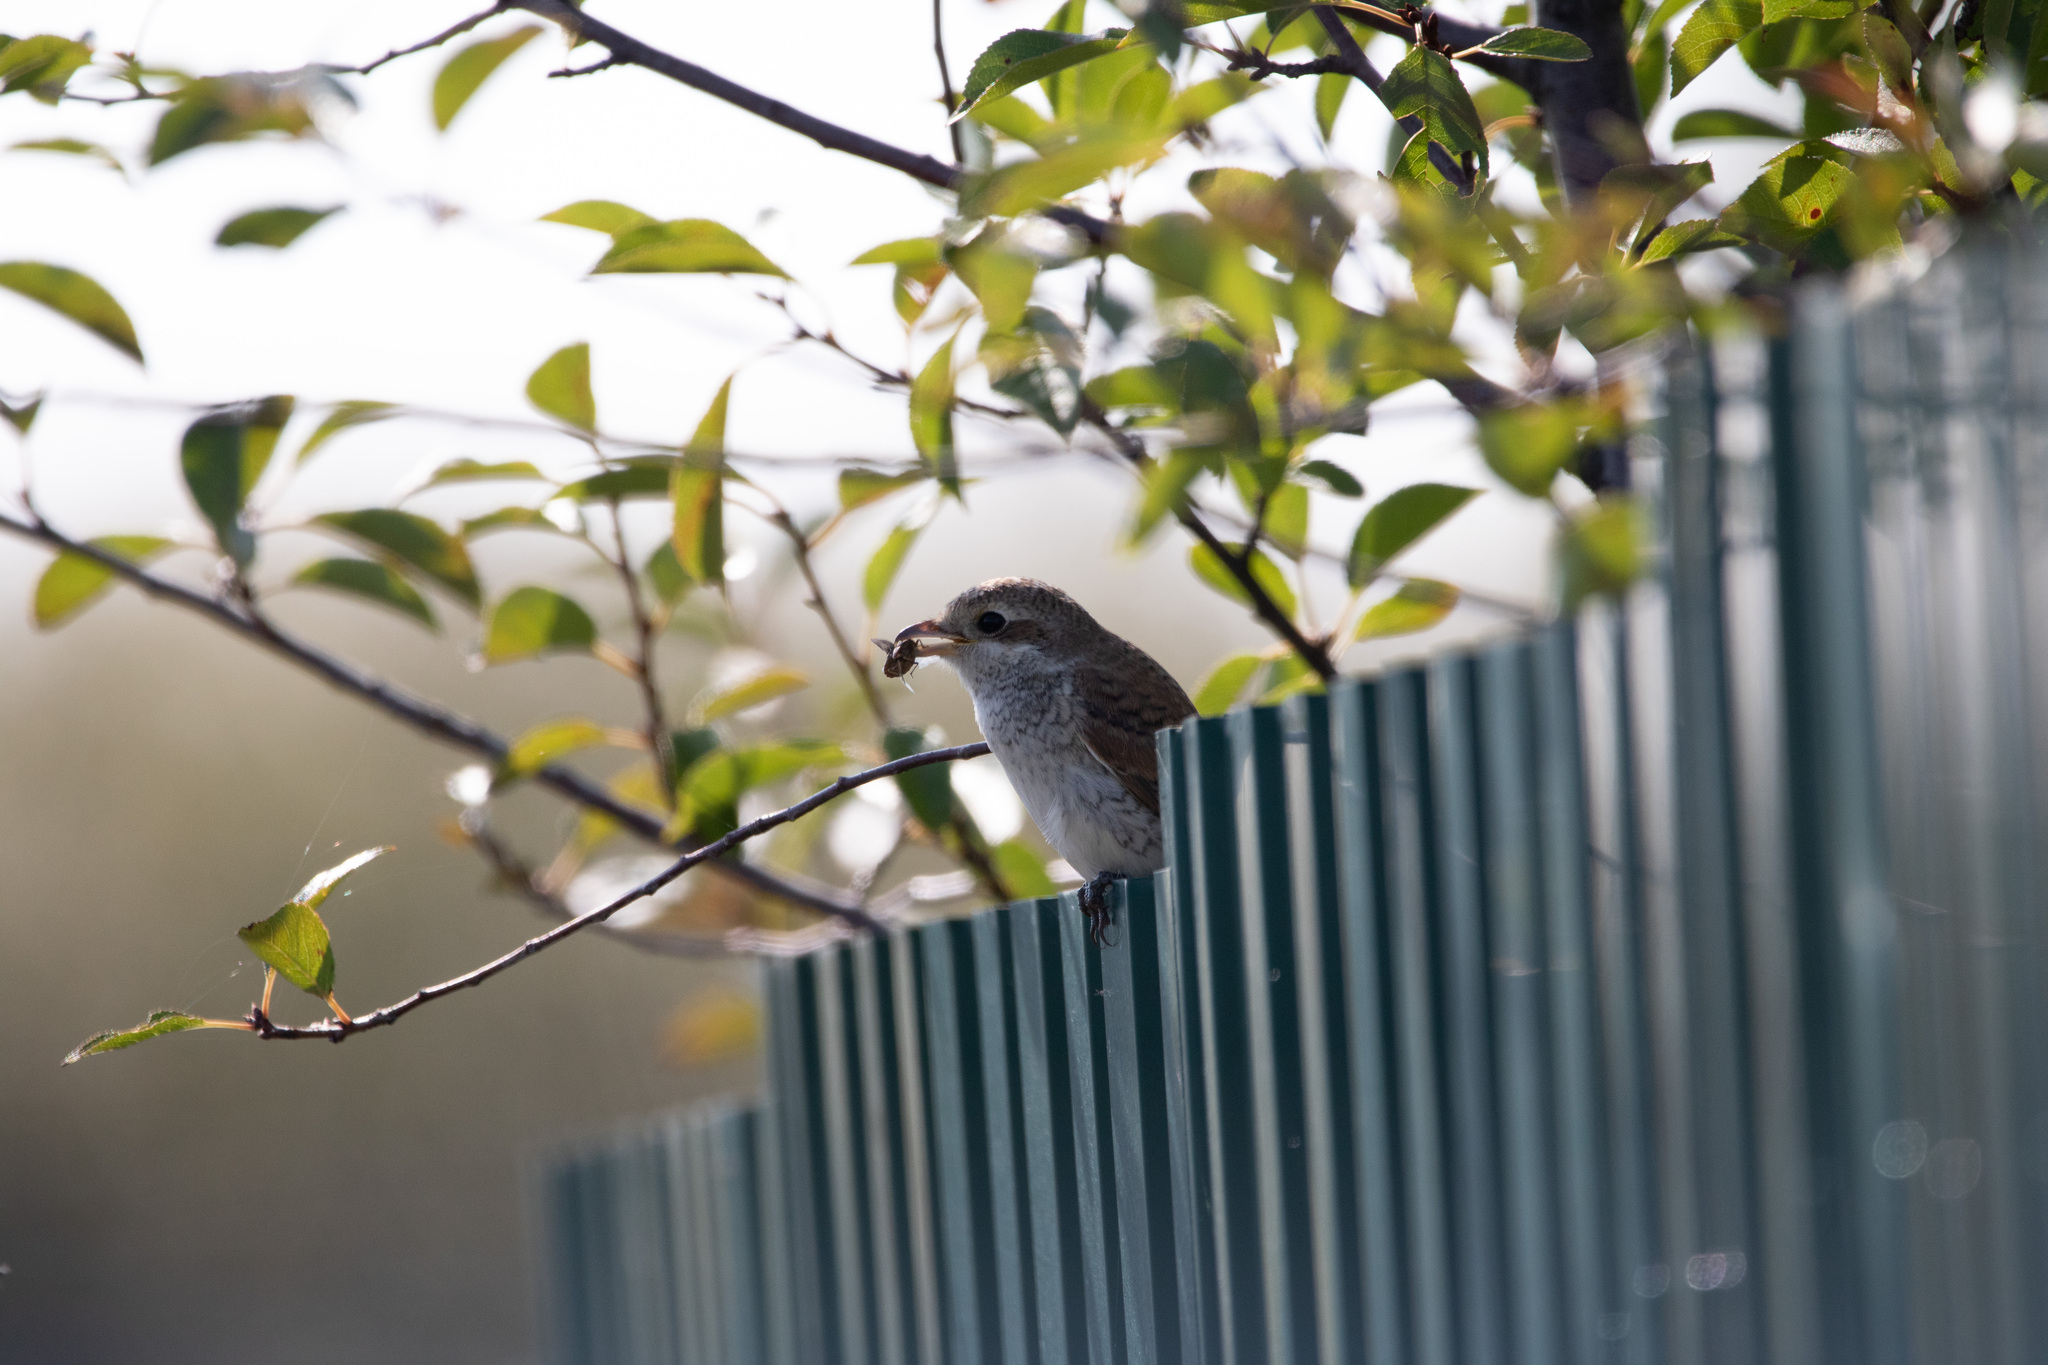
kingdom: Animalia
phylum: Chordata
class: Aves
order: Passeriformes
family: Laniidae
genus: Lanius
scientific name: Lanius collurio
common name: Red-backed shrike
